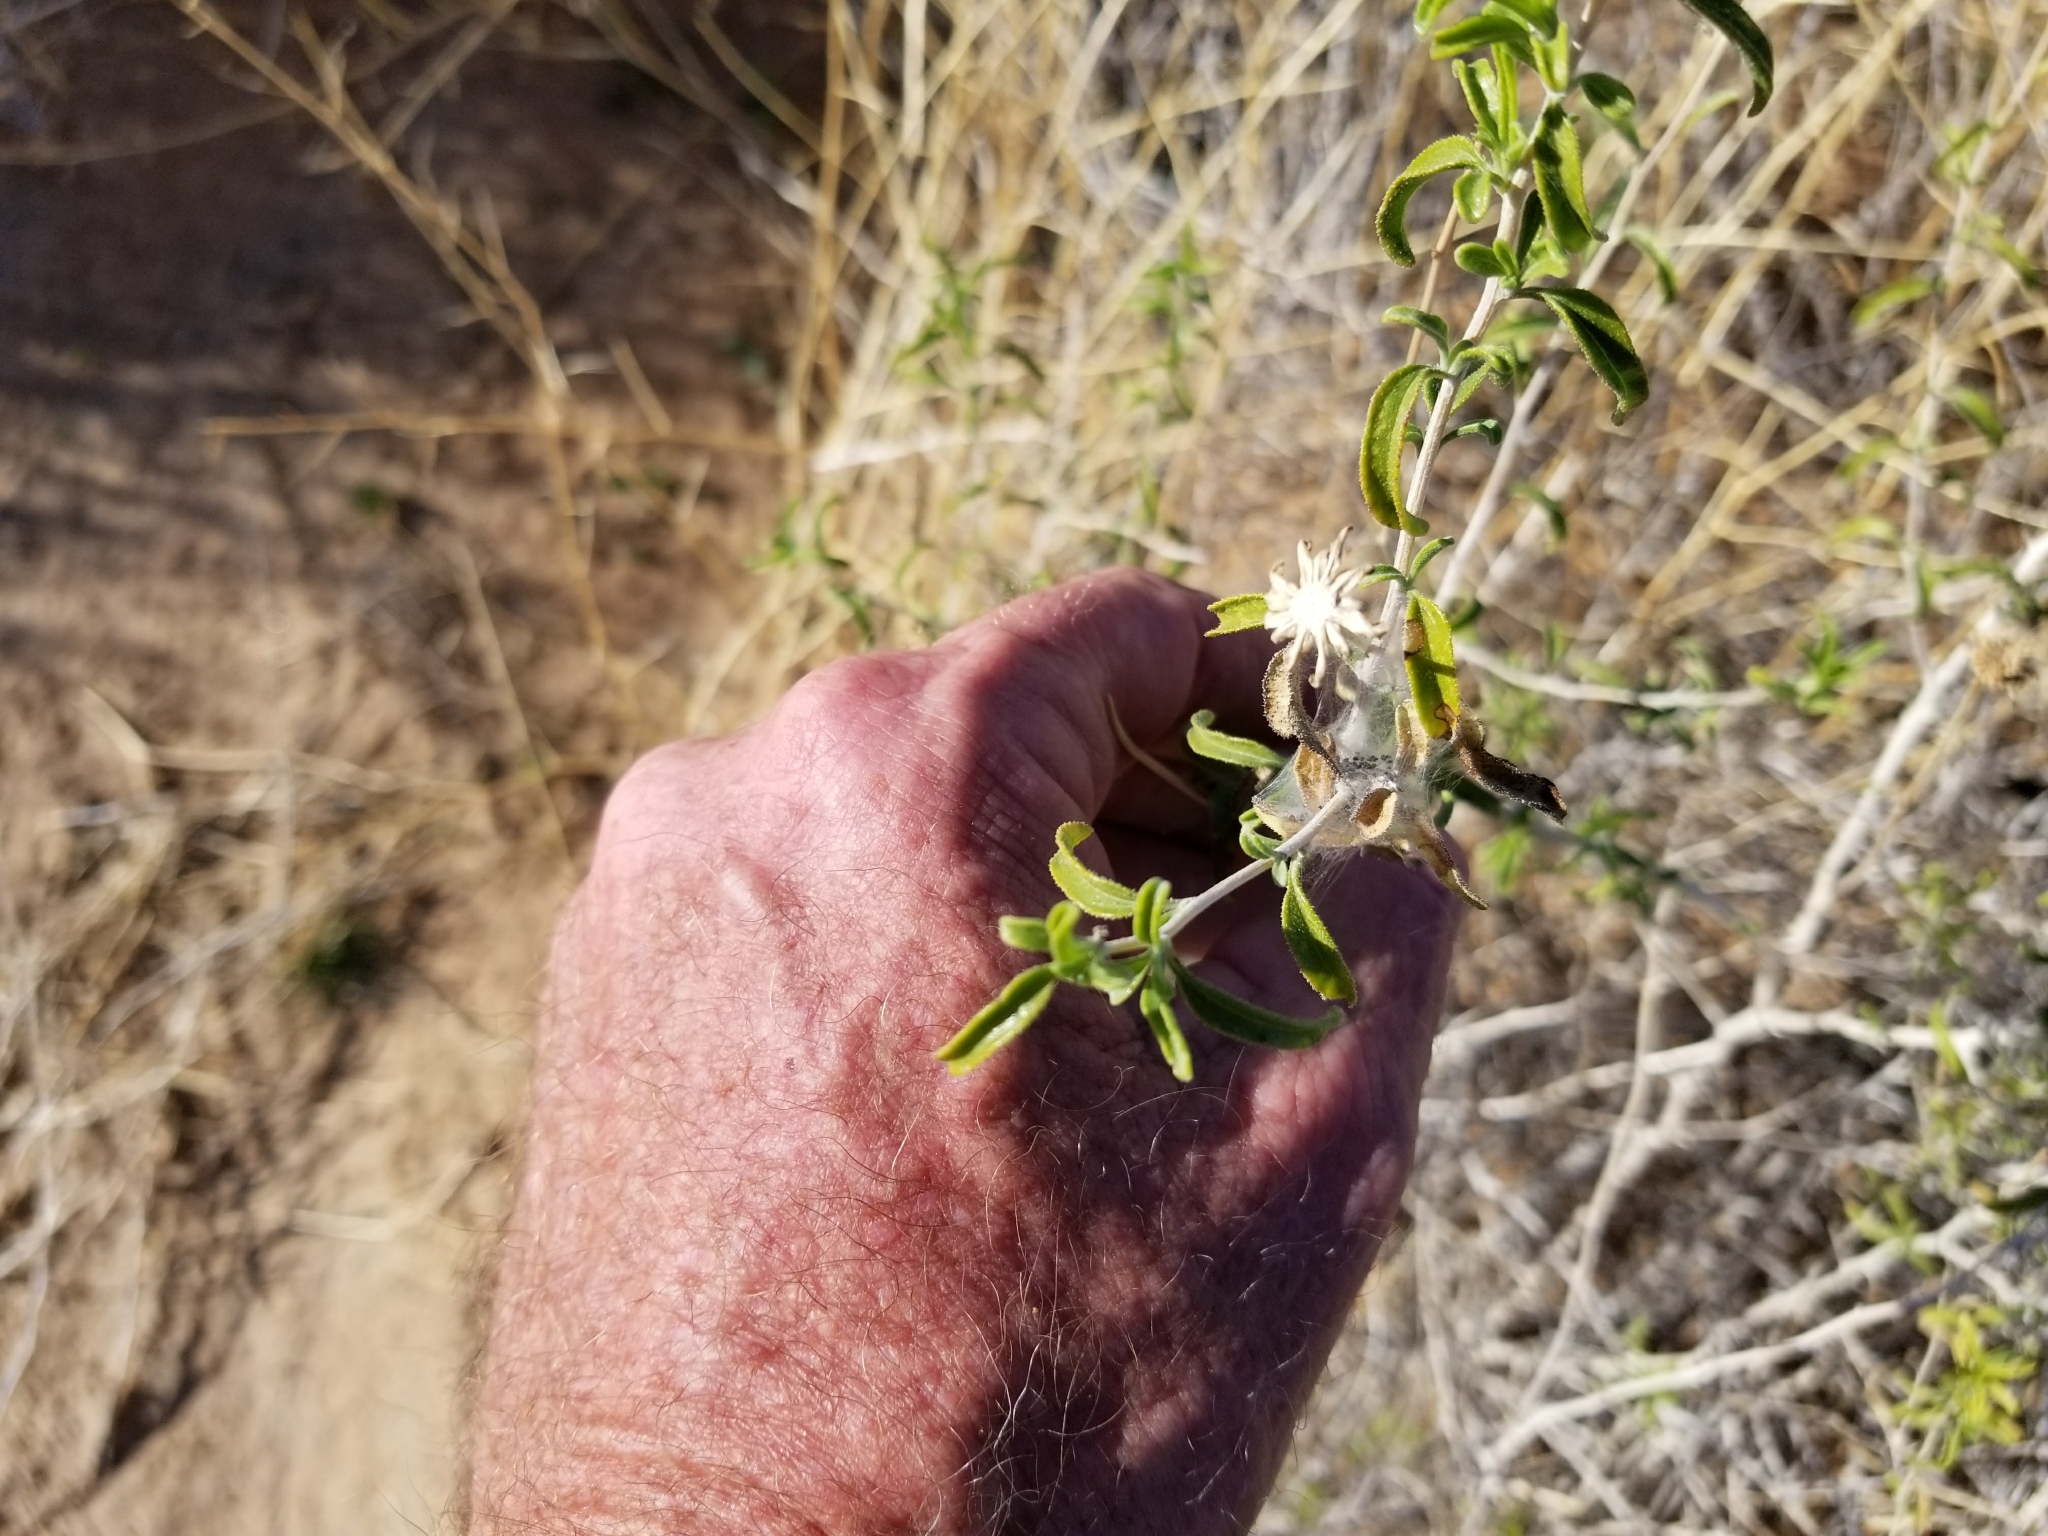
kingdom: Plantae
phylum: Tracheophyta
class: Magnoliopsida
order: Asterales
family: Asteraceae
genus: Encelia
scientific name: Encelia frutescens
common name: Bush encelia
